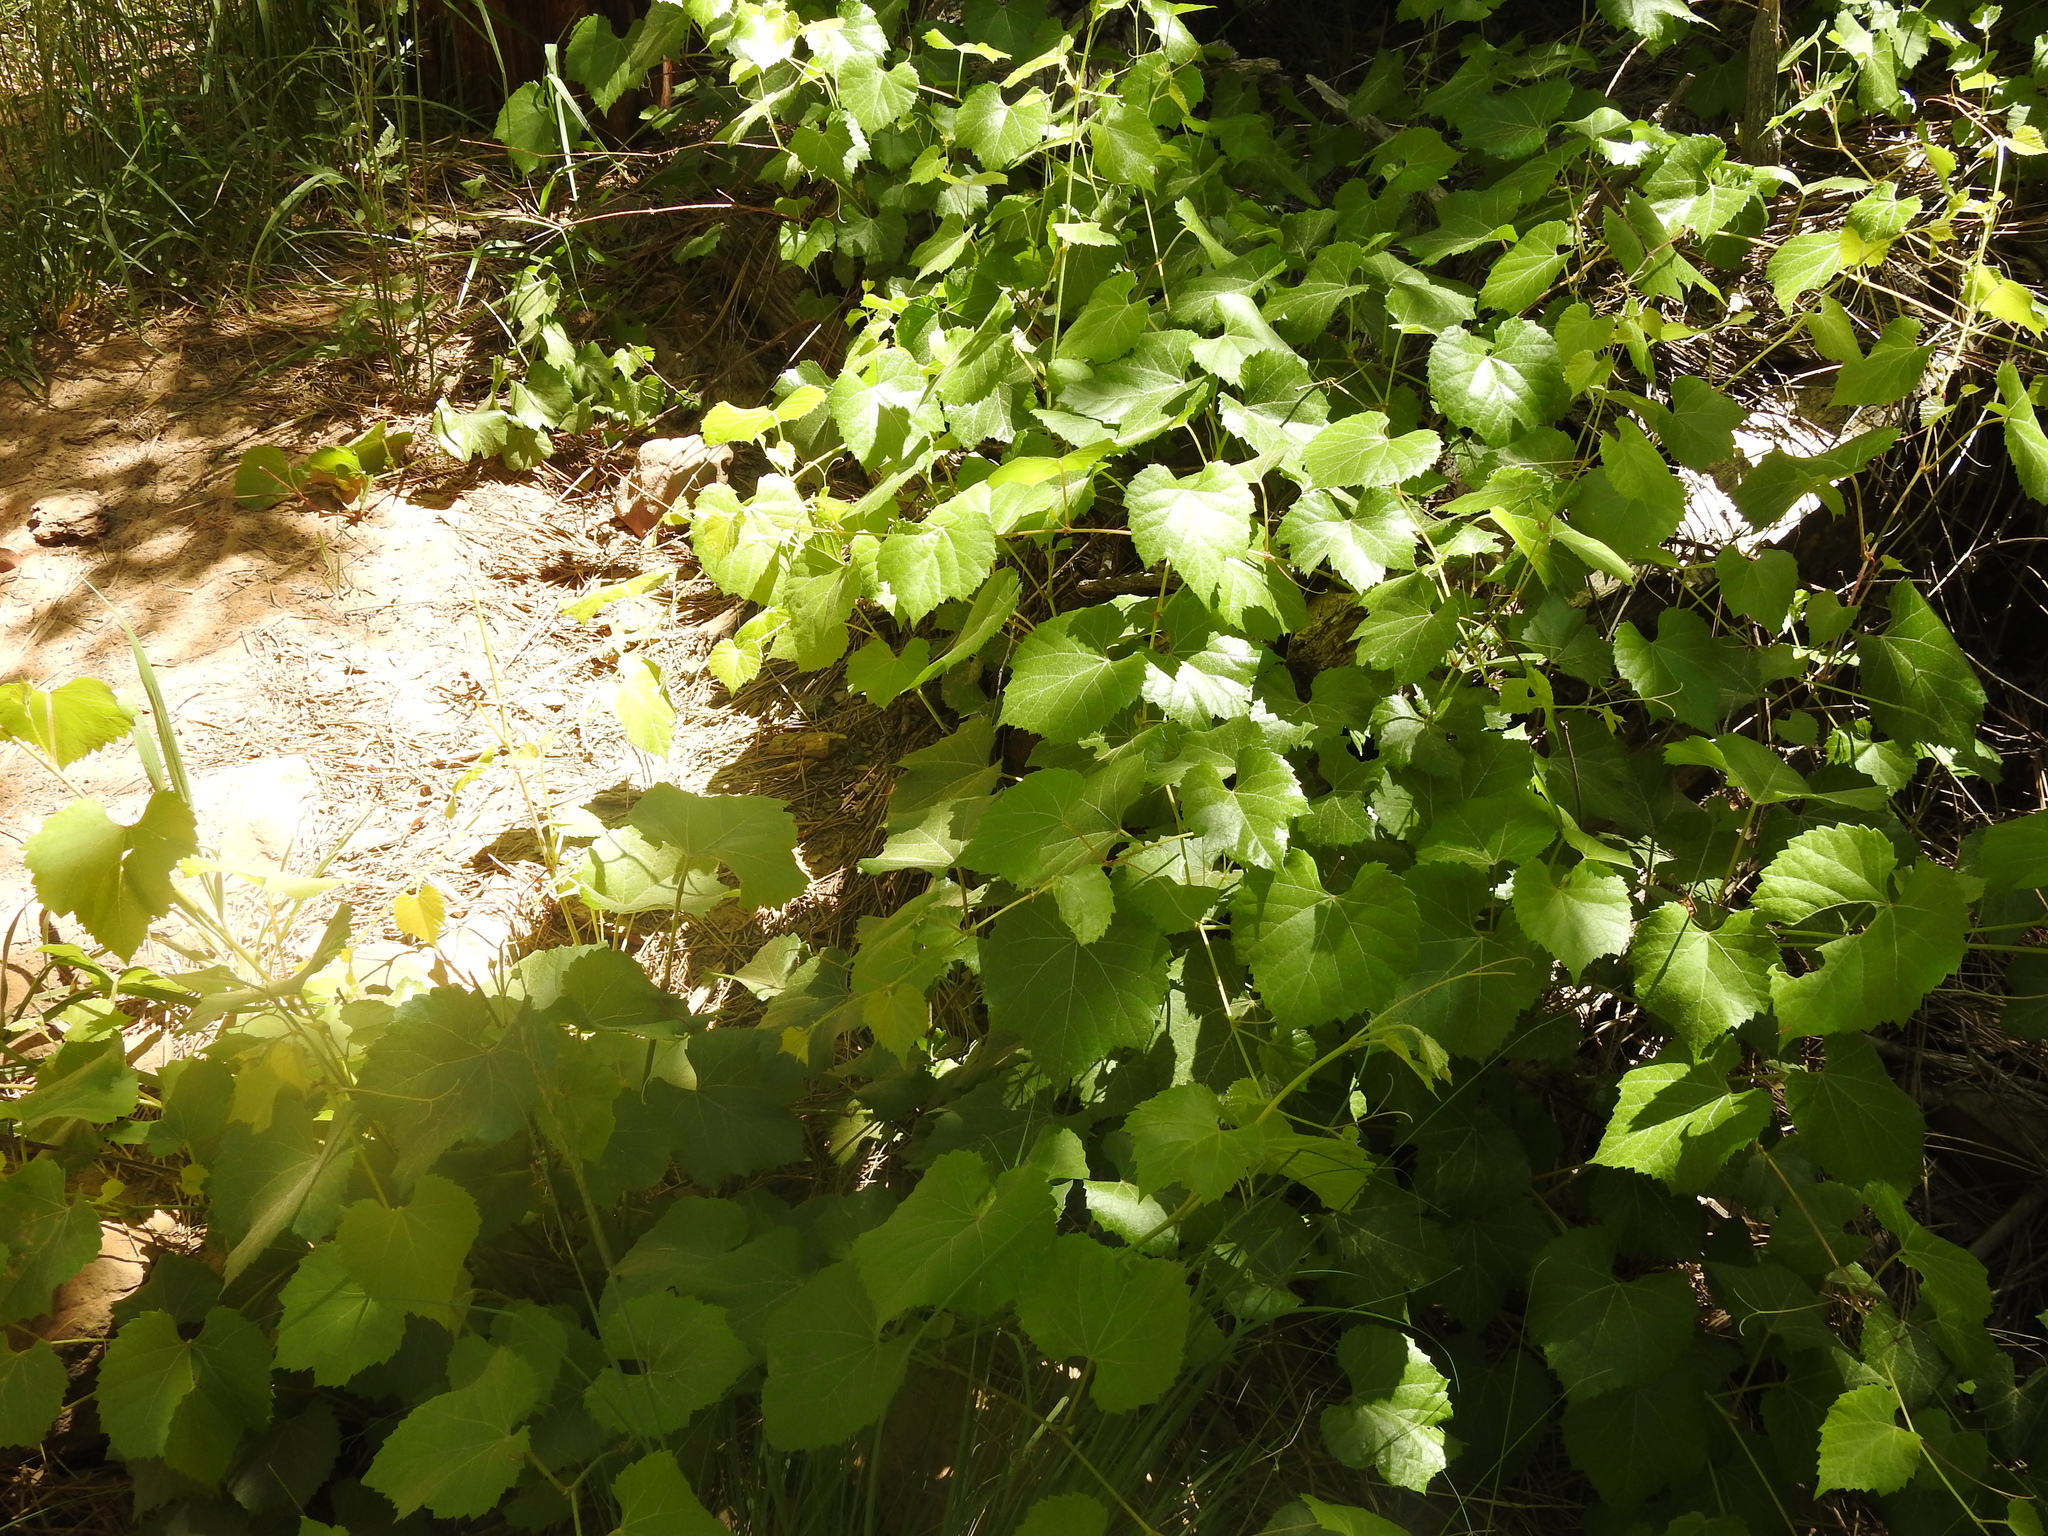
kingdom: Plantae
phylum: Tracheophyta
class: Magnoliopsida
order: Vitales
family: Vitaceae
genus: Vitis
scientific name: Vitis arizonica
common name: Canyon grape
